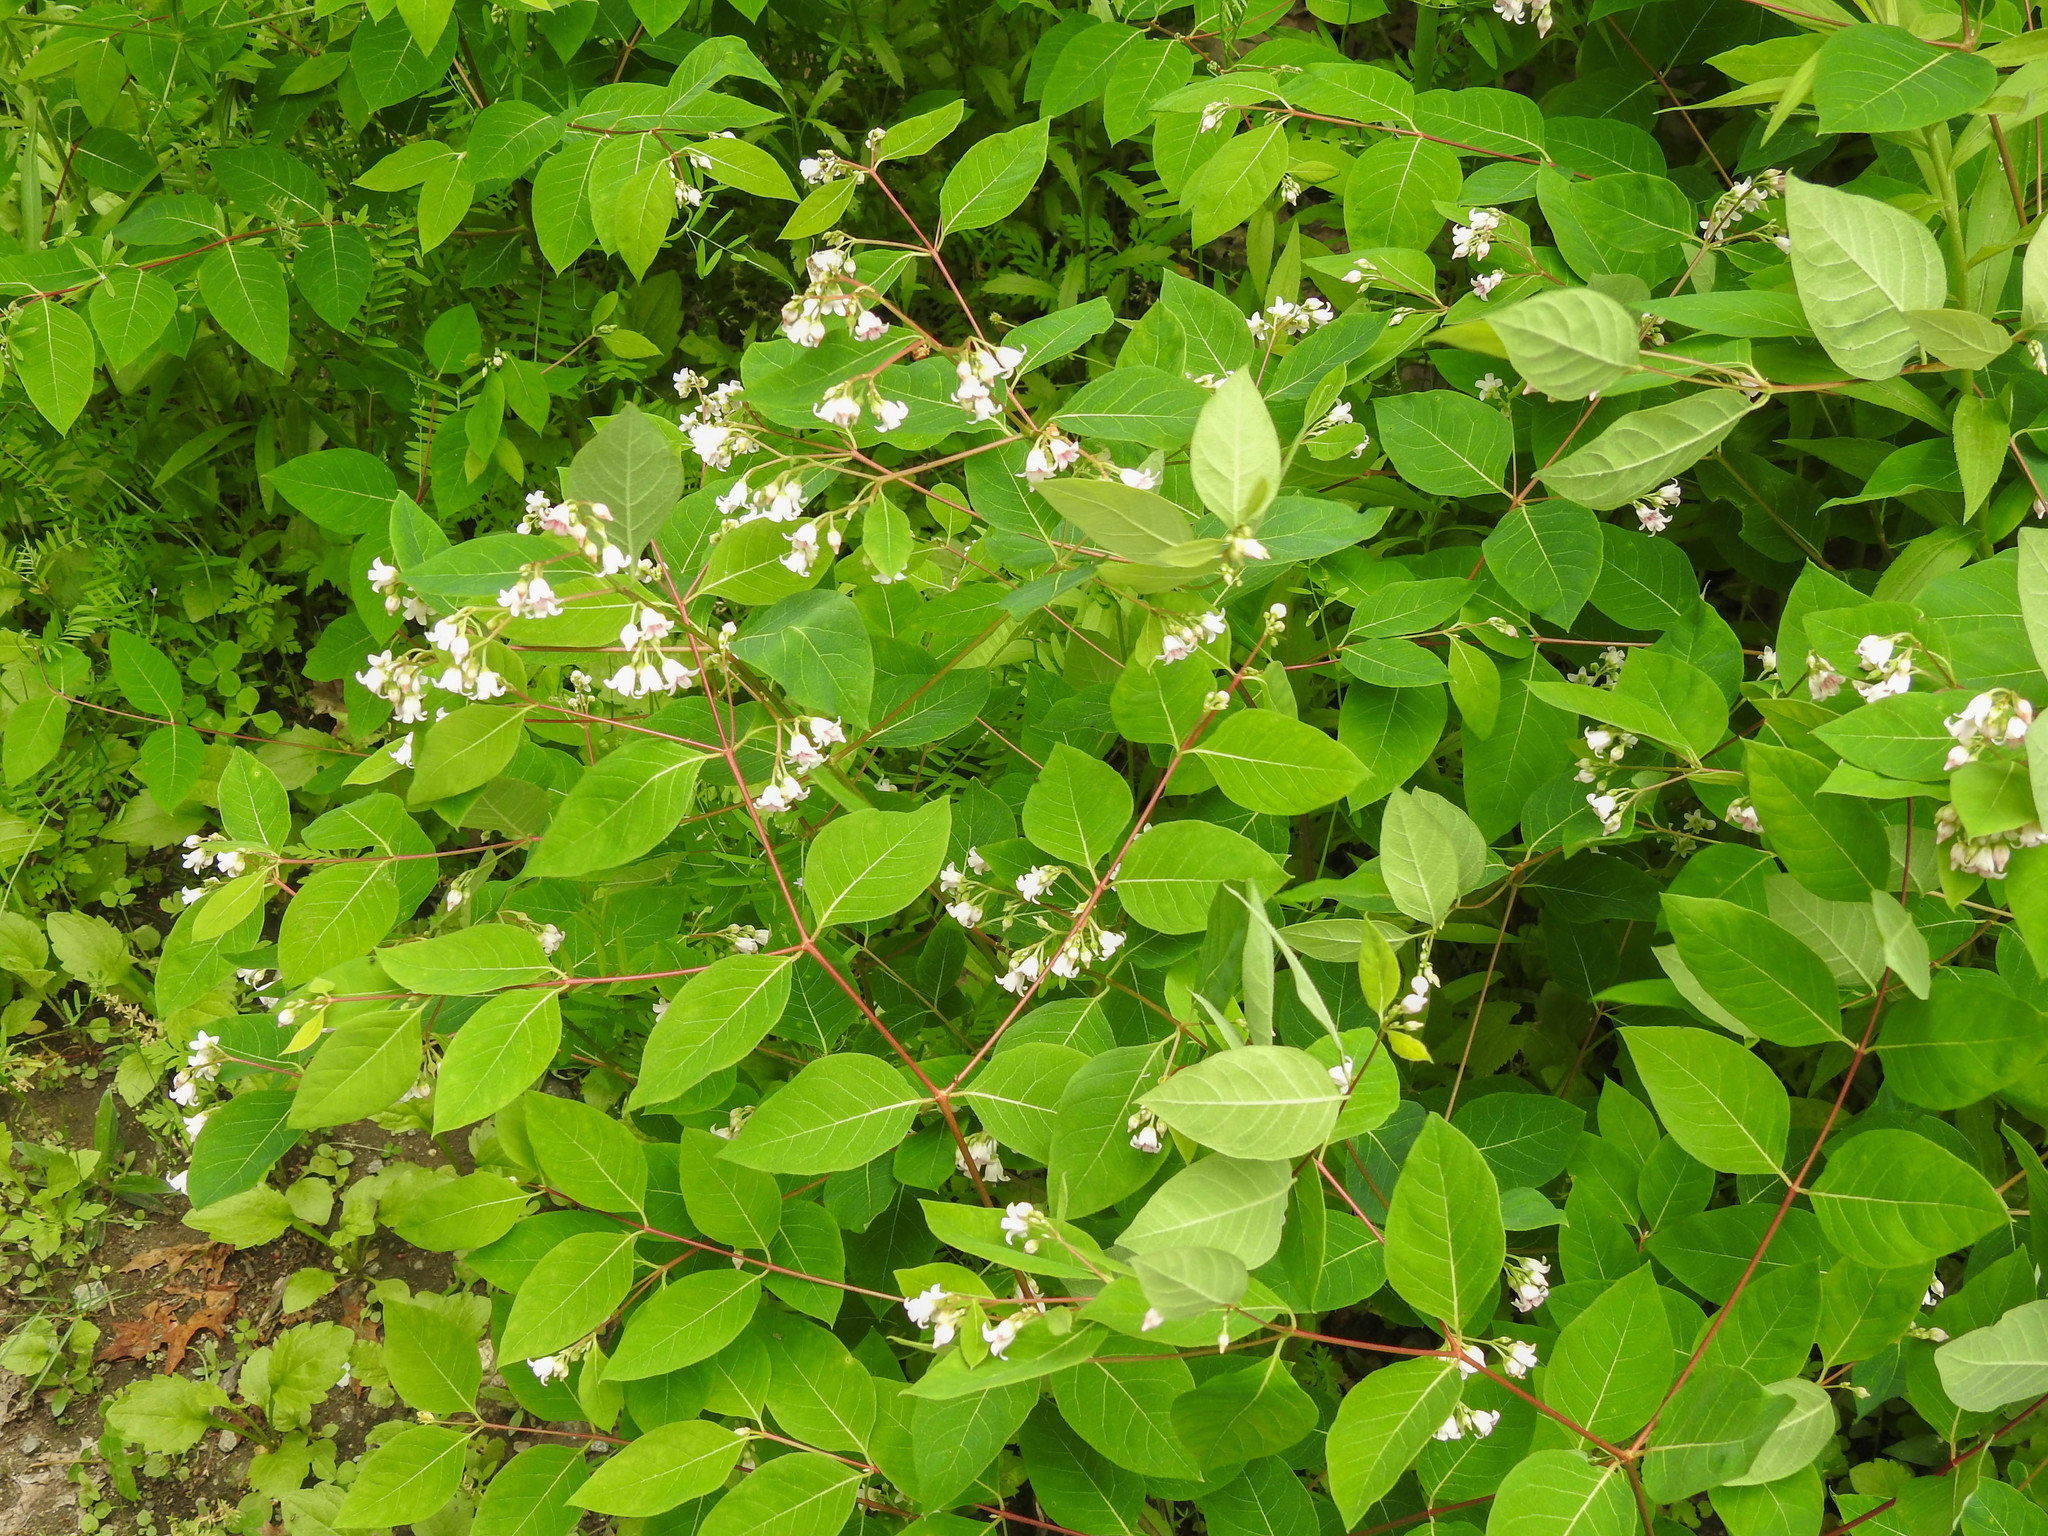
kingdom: Plantae
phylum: Tracheophyta
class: Magnoliopsida
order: Gentianales
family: Apocynaceae
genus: Apocynum
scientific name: Apocynum androsaemifolium
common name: Spreading dogbane
